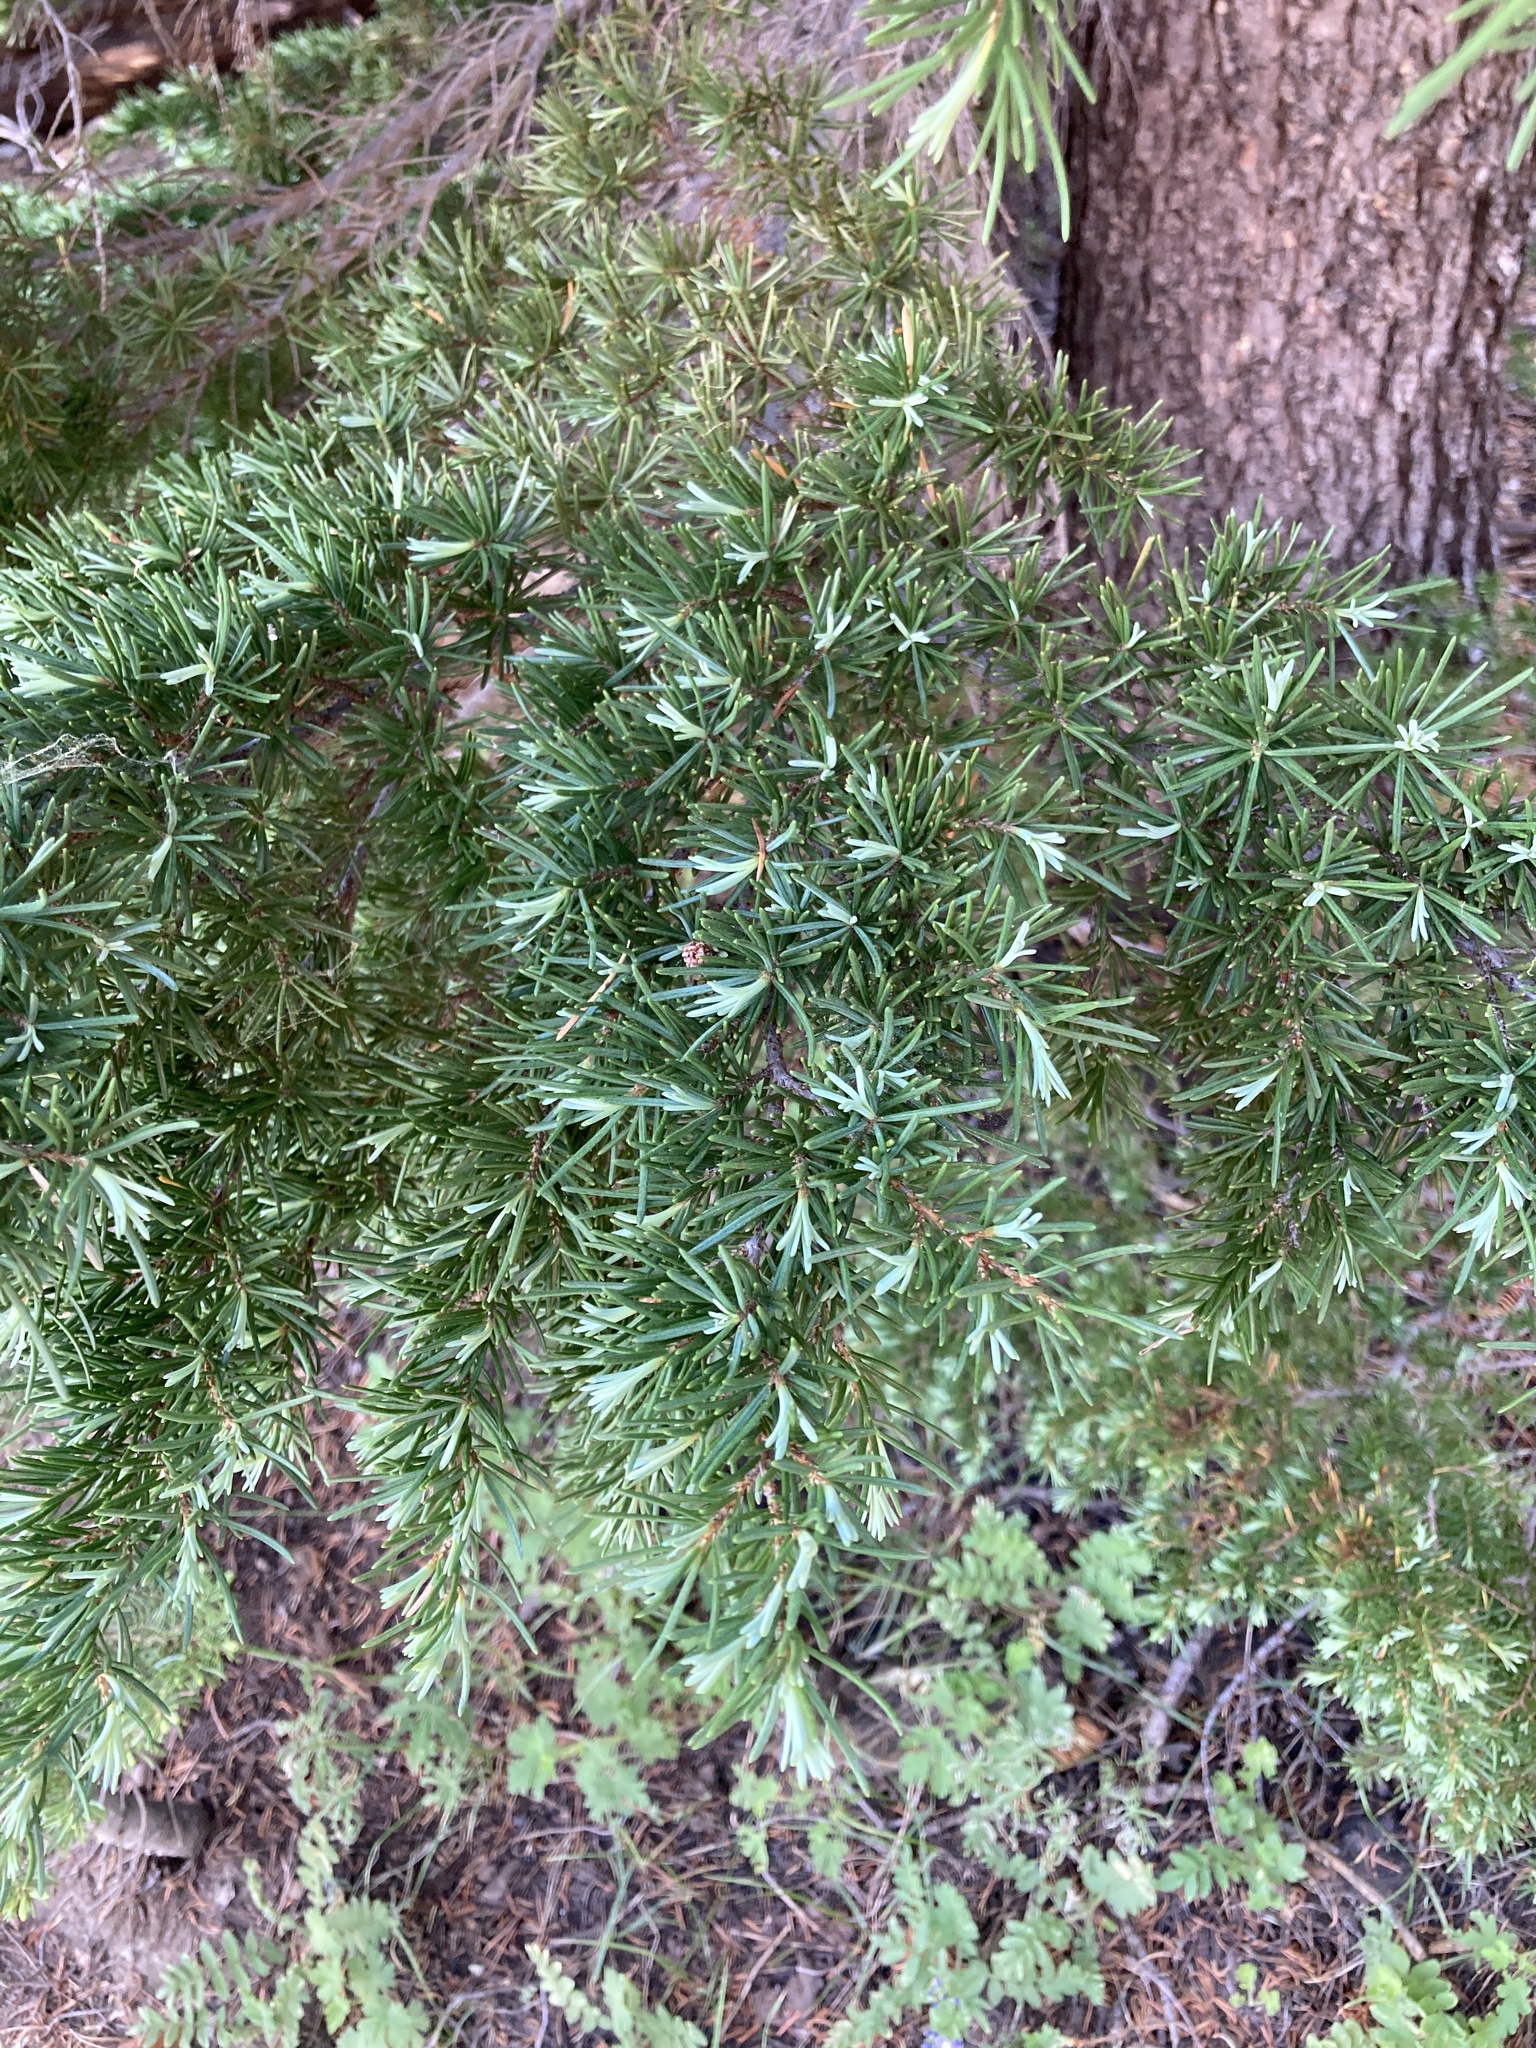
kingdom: Plantae
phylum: Tracheophyta
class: Pinopsida
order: Pinales
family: Pinaceae
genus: Tsuga
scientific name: Tsuga mertensiana
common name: Mountain hemlock
